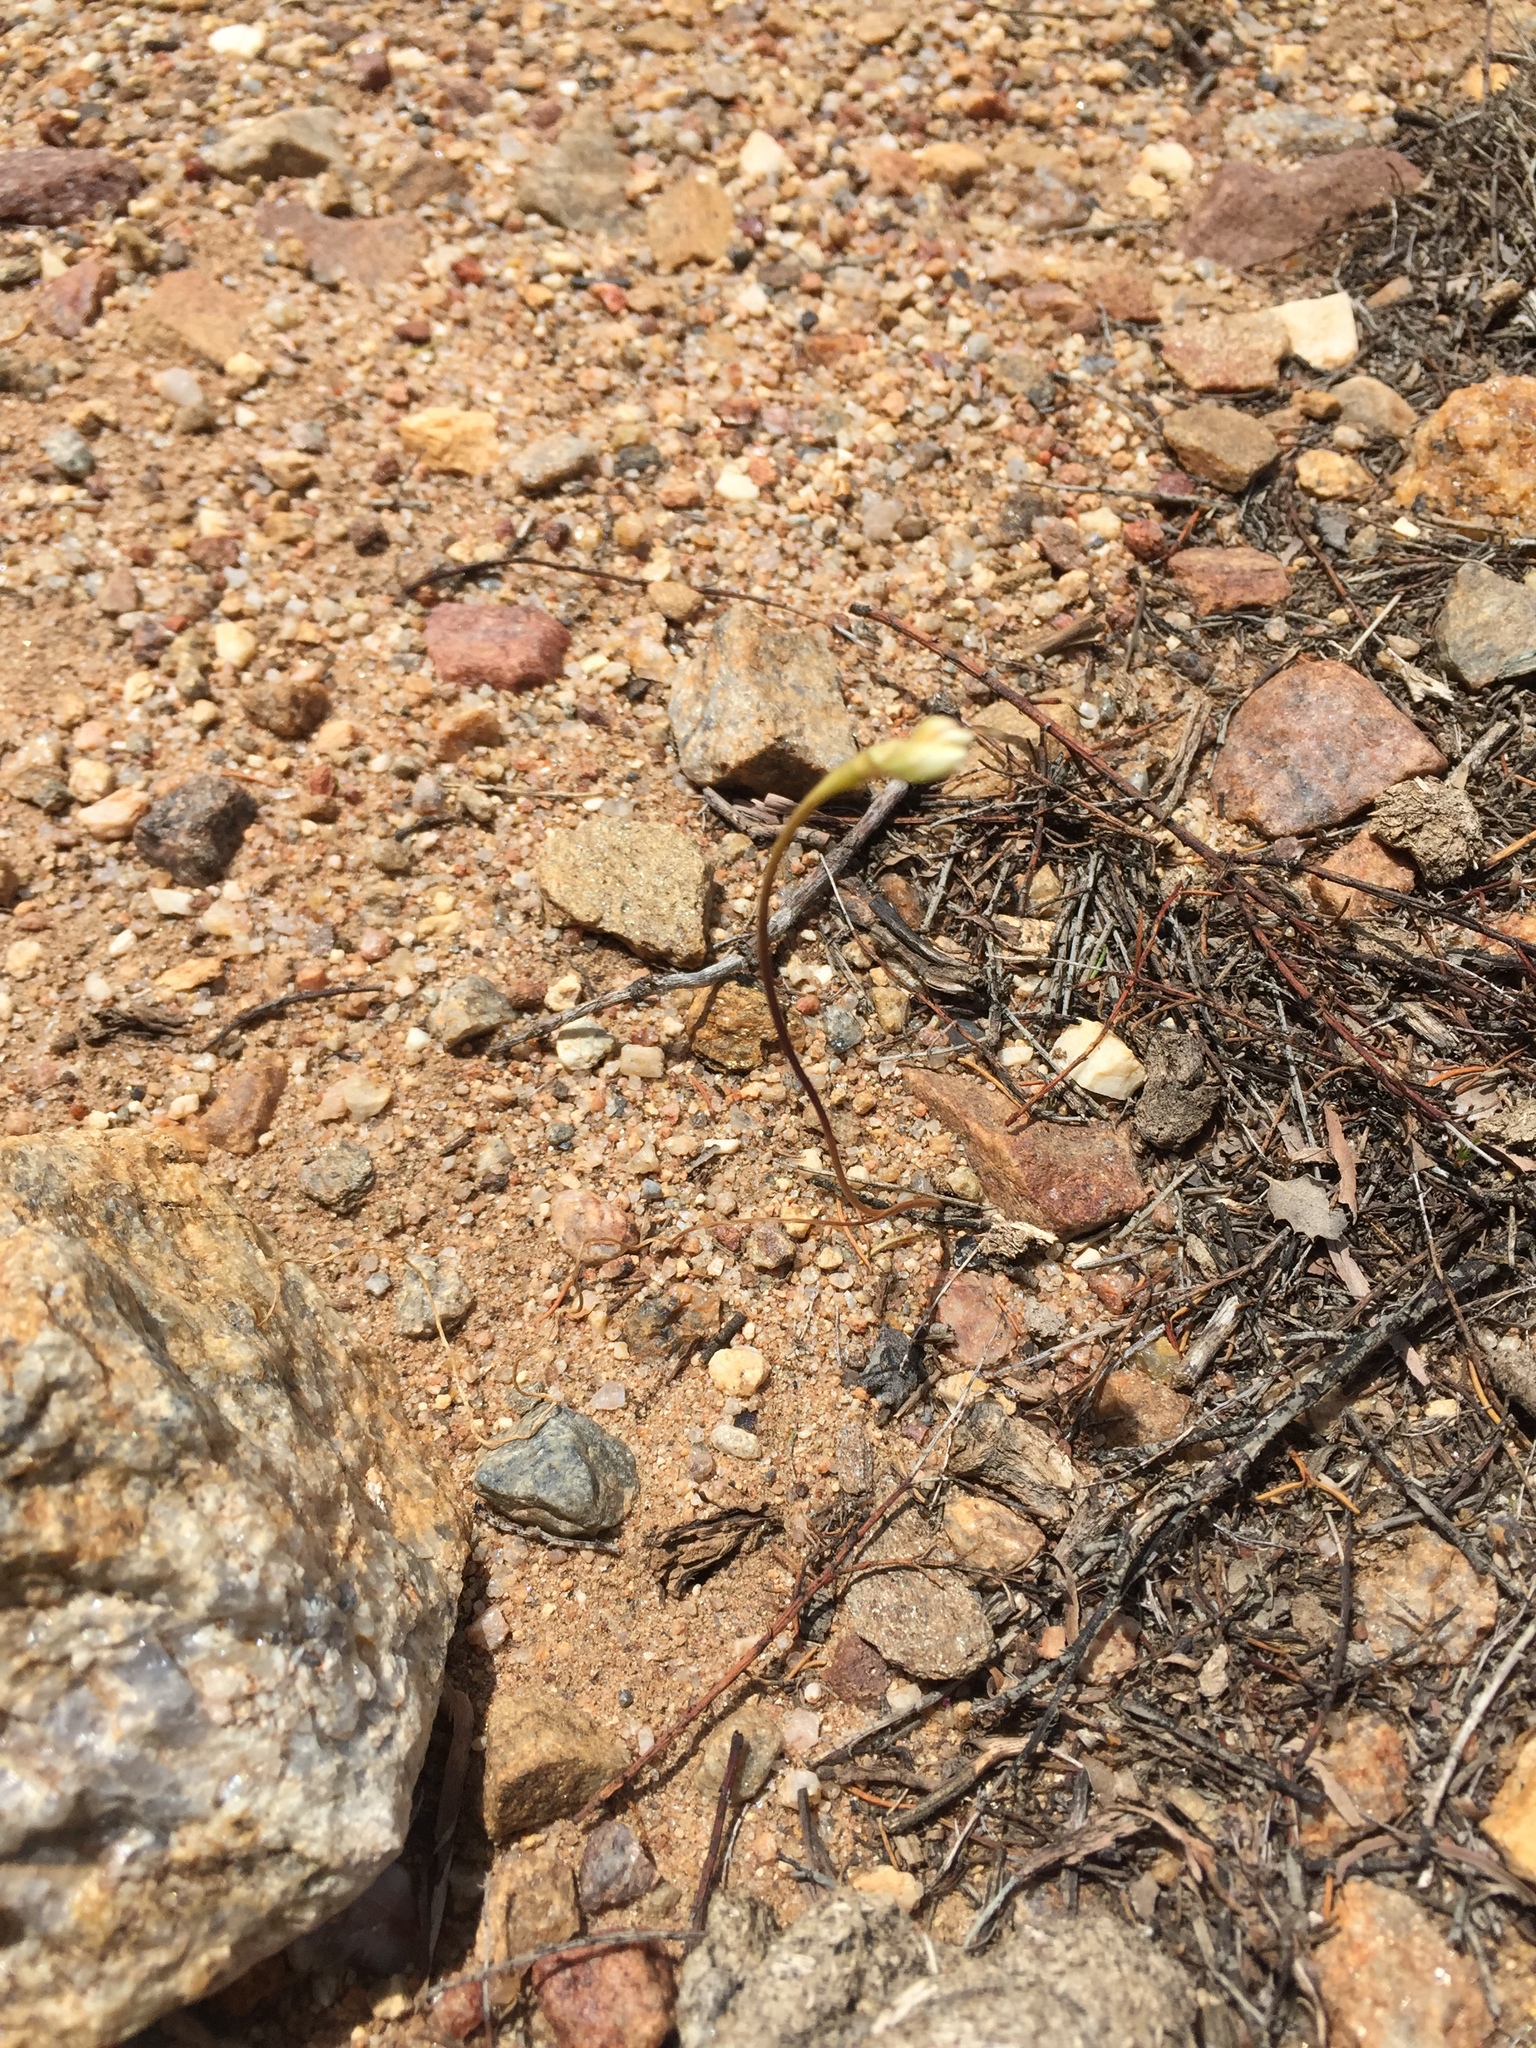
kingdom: Plantae
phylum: Tracheophyta
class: Liliopsida
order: Asparagales
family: Amaryllidaceae
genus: Allium
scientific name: Allium parryi
